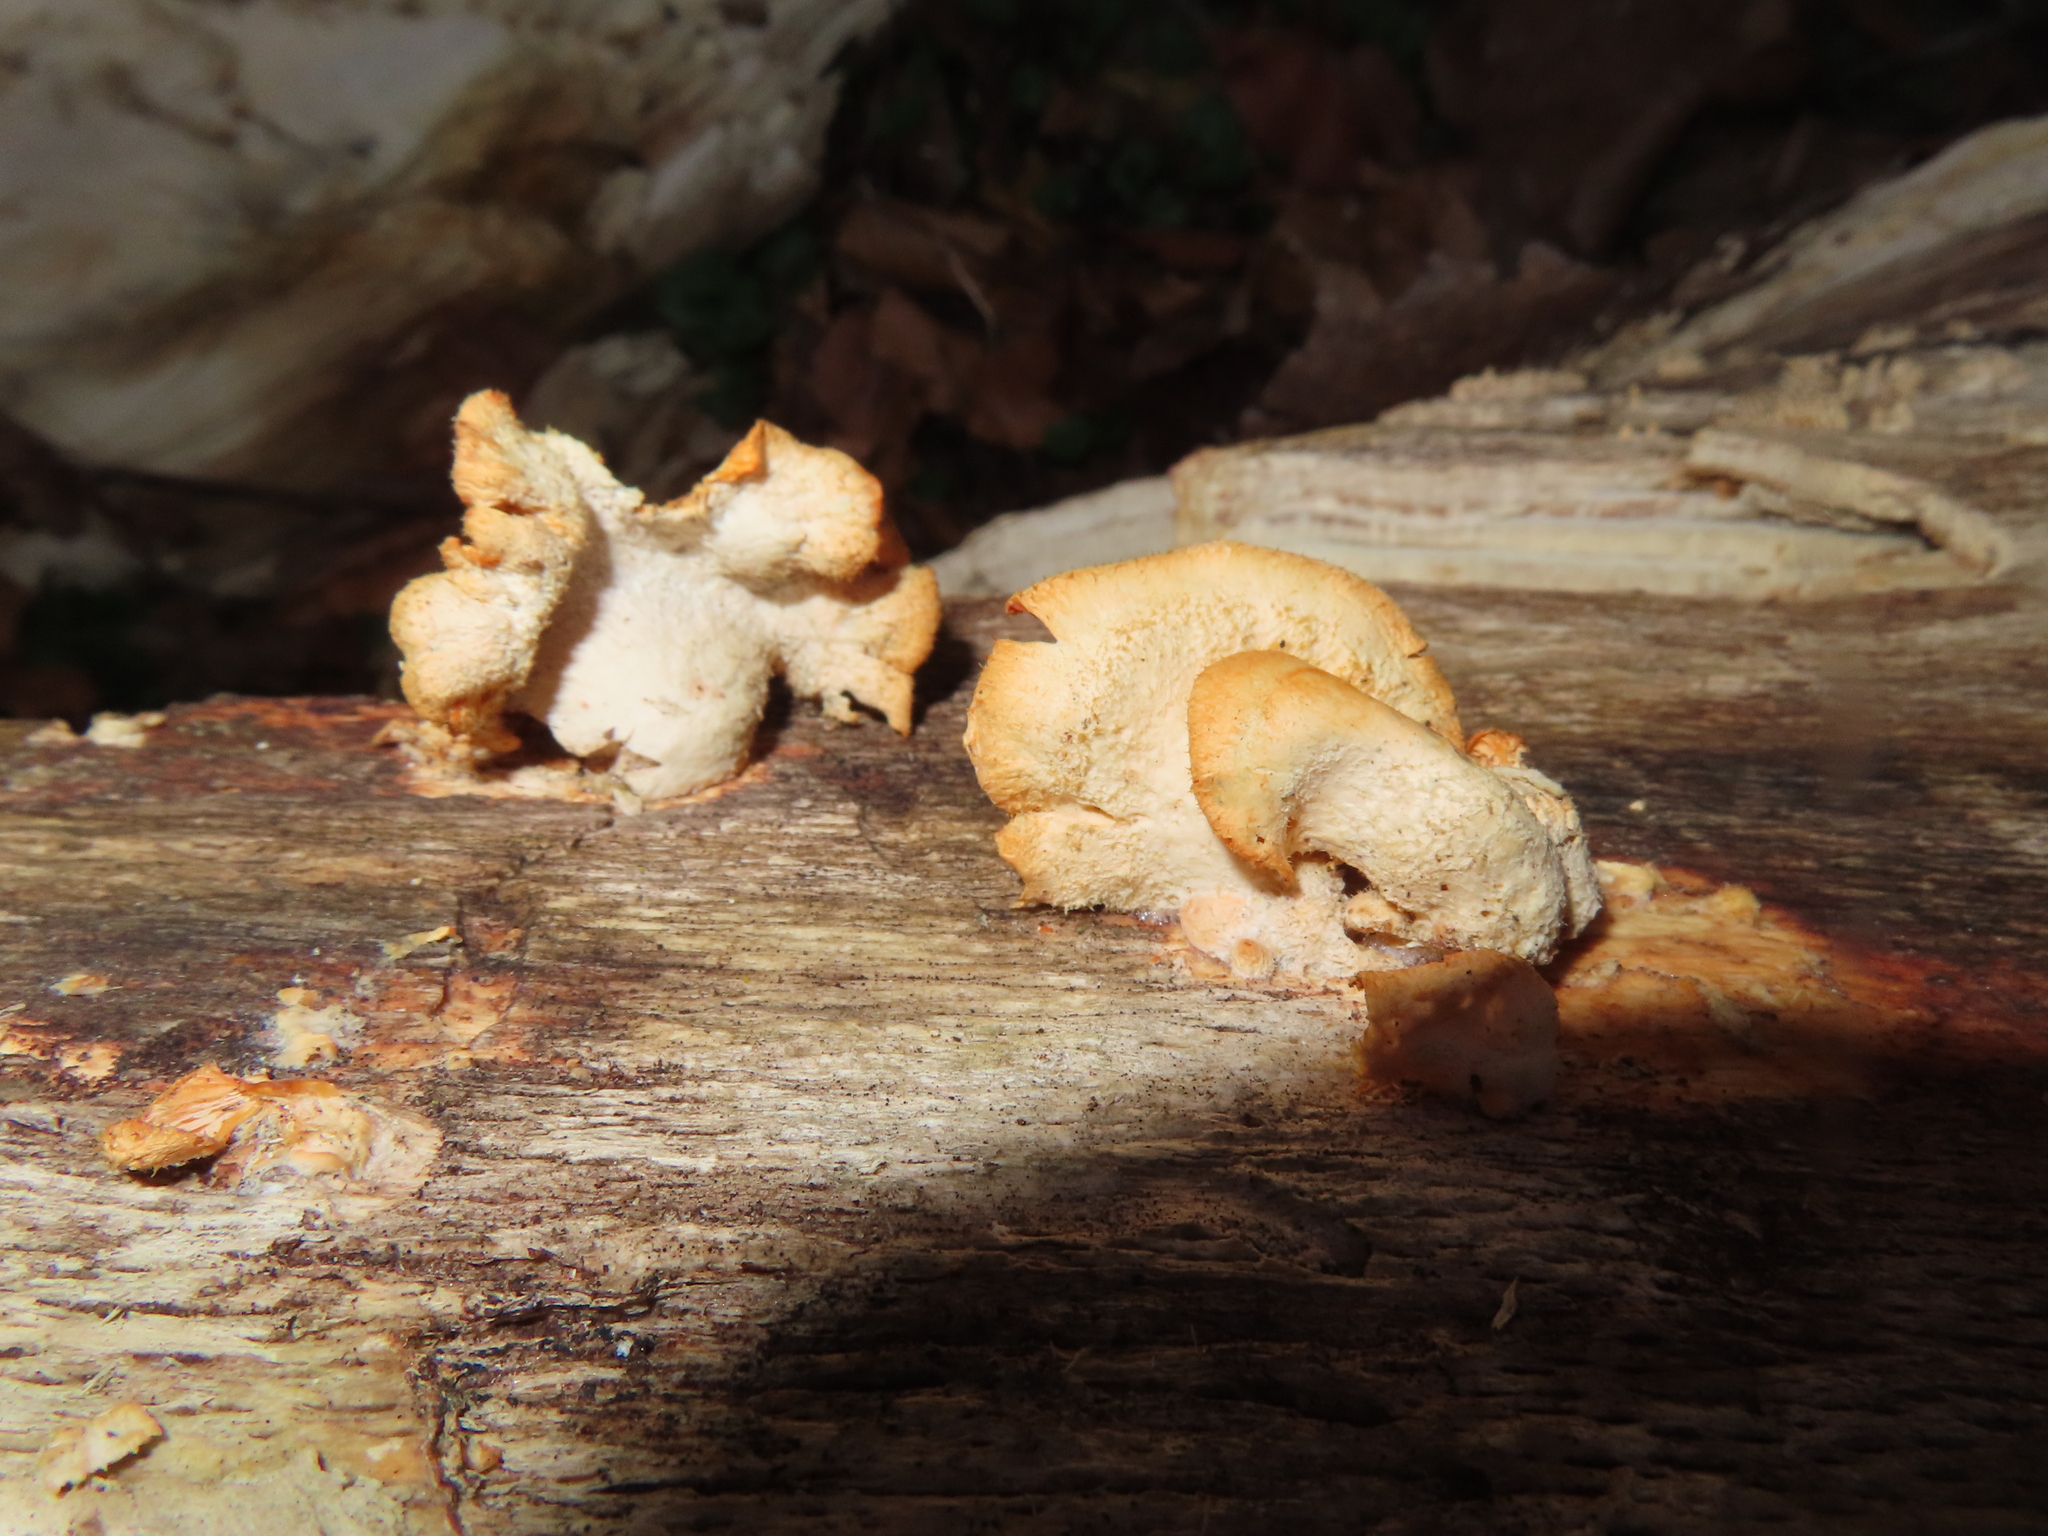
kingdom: Fungi
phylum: Basidiomycota
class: Agaricomycetes
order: Agaricales
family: Phyllotopsidaceae
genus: Phyllotopsis
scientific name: Phyllotopsis nidulans
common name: Orange mock oyster
